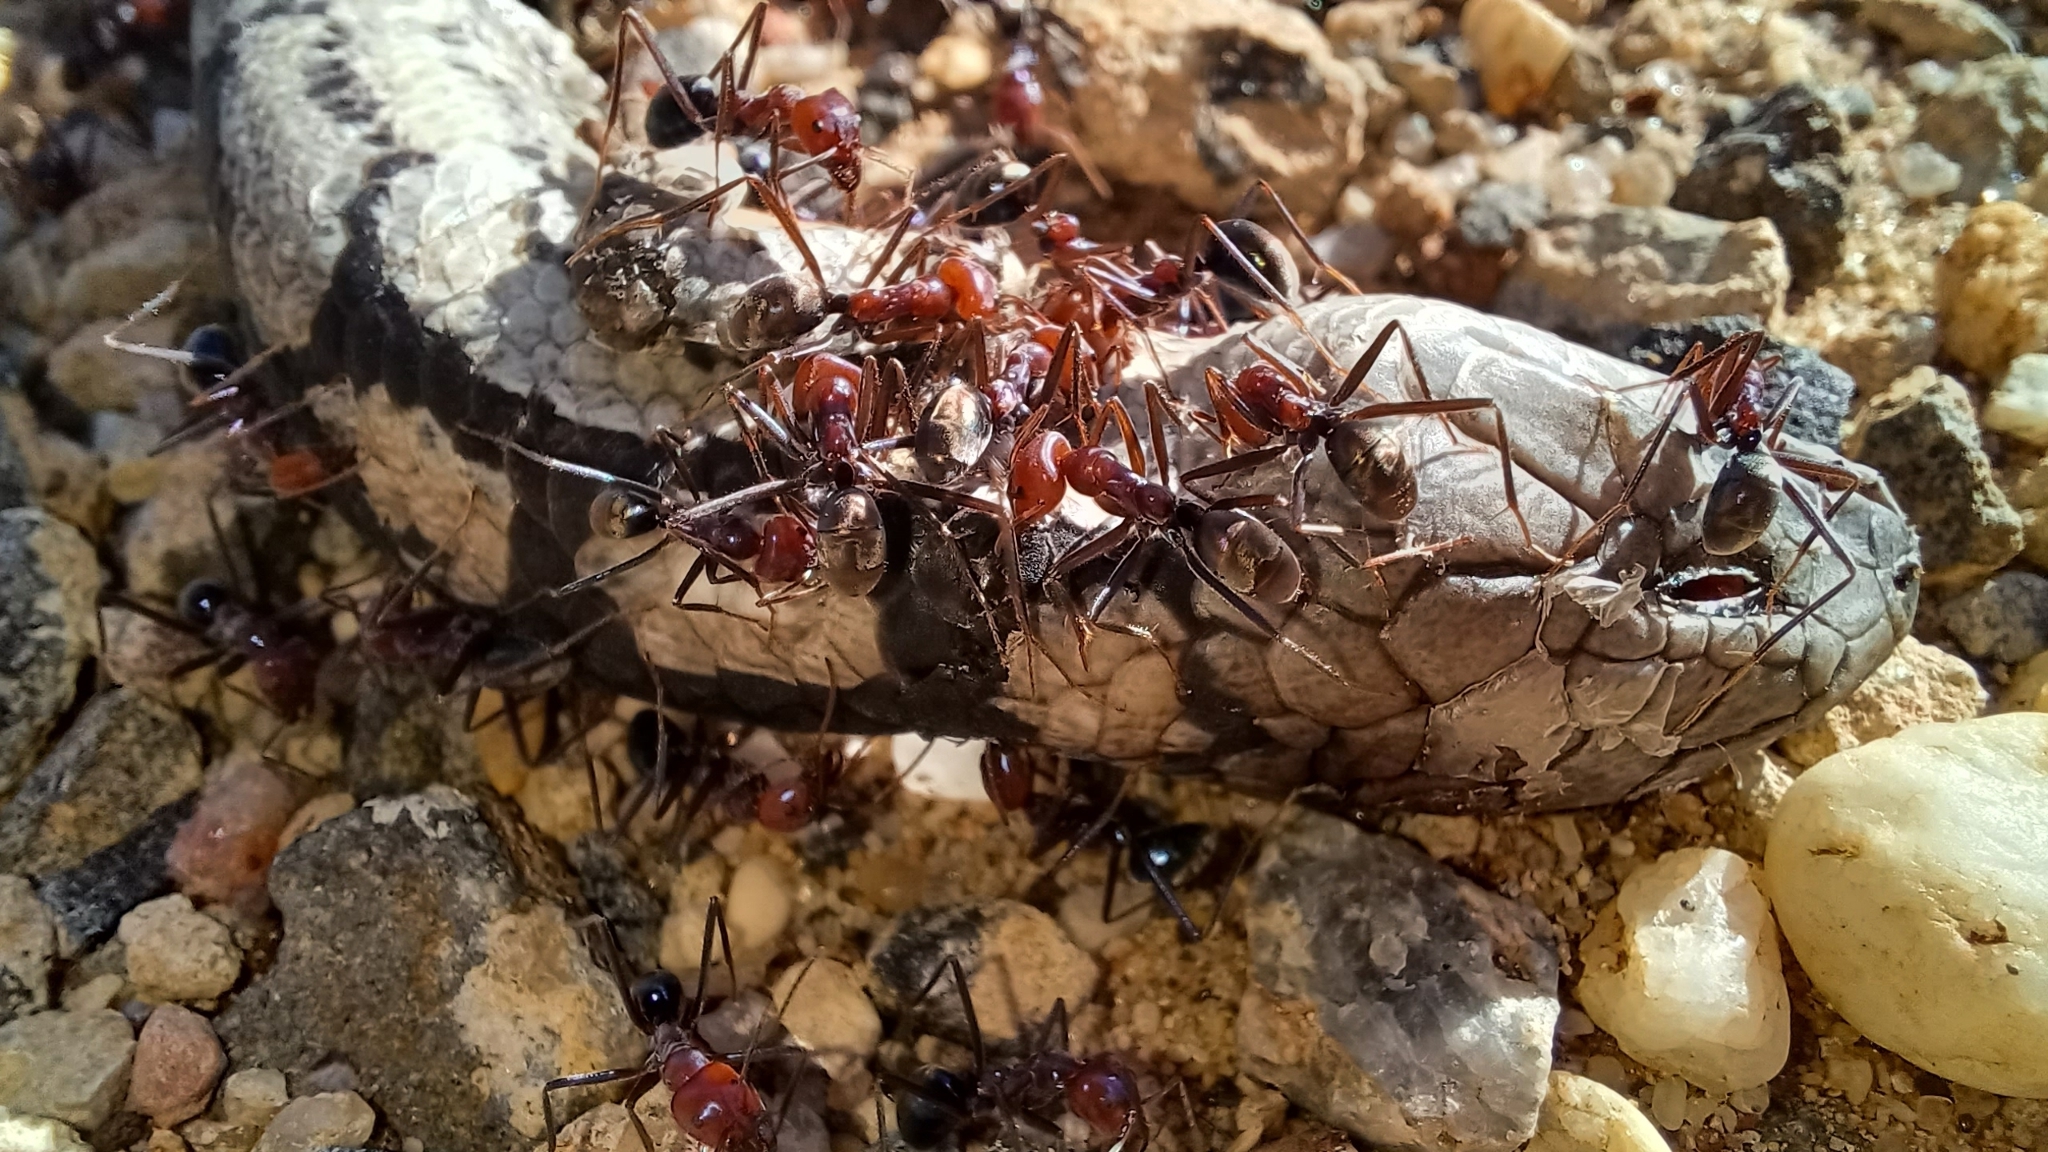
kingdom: Animalia
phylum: Arthropoda
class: Insecta
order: Hymenoptera
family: Formicidae
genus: Iridomyrmex
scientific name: Iridomyrmex purpureus
